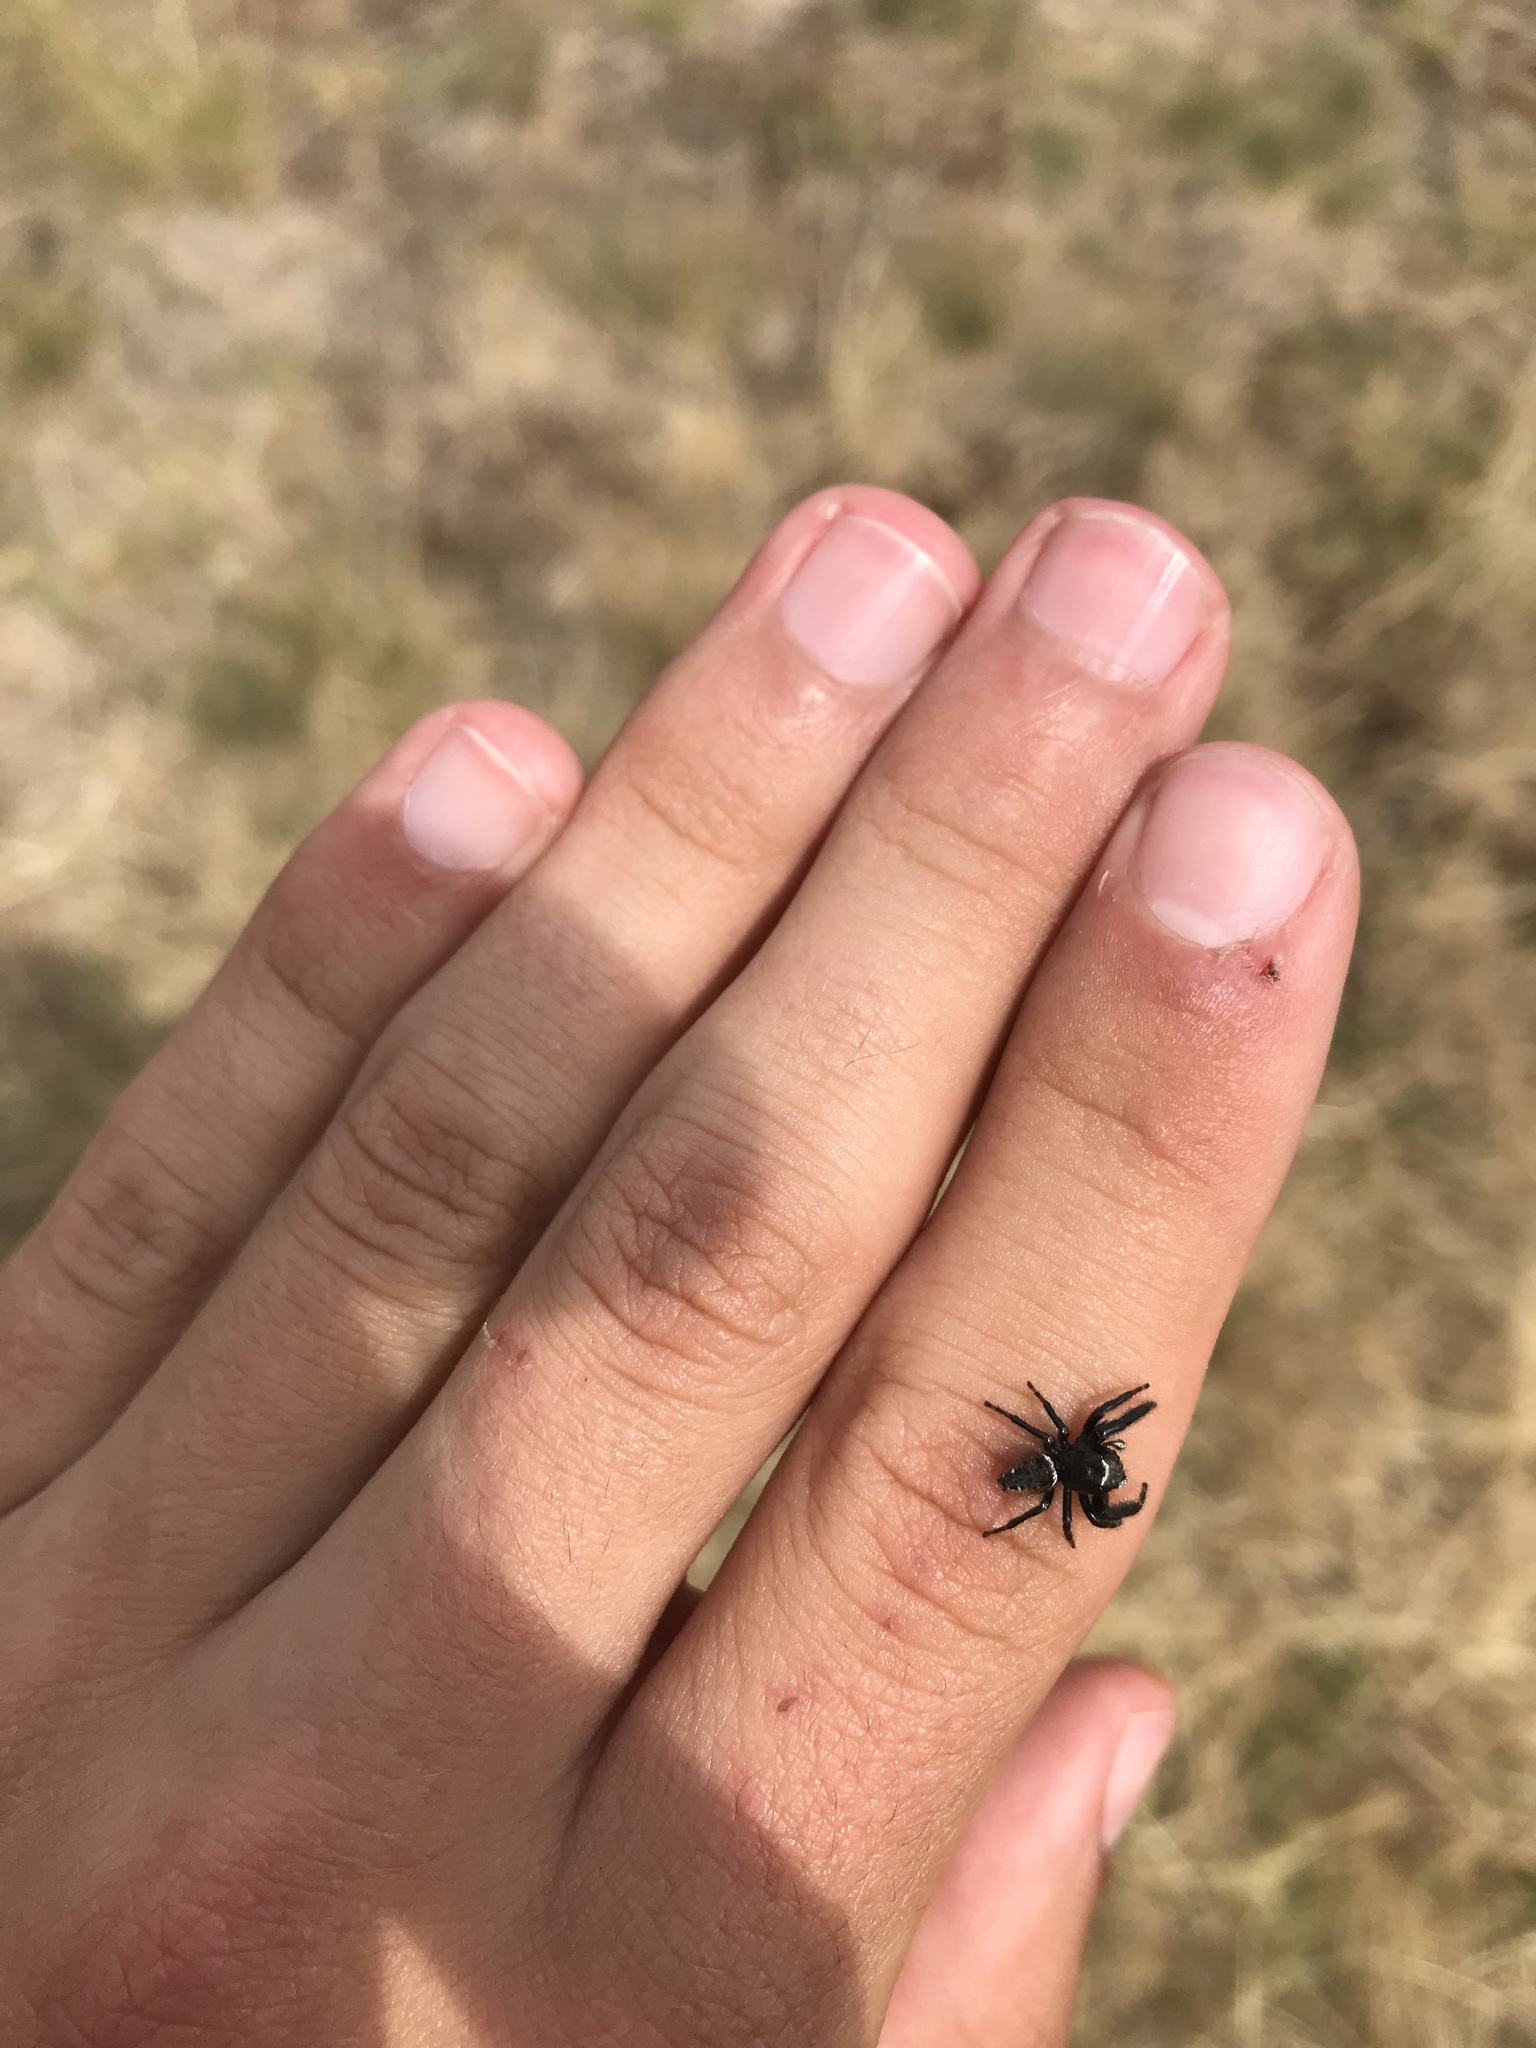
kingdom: Animalia
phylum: Arthropoda
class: Arachnida
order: Araneae
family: Salticidae
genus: Phidippus
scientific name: Phidippus clarus
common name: Brilliant jumping spider
